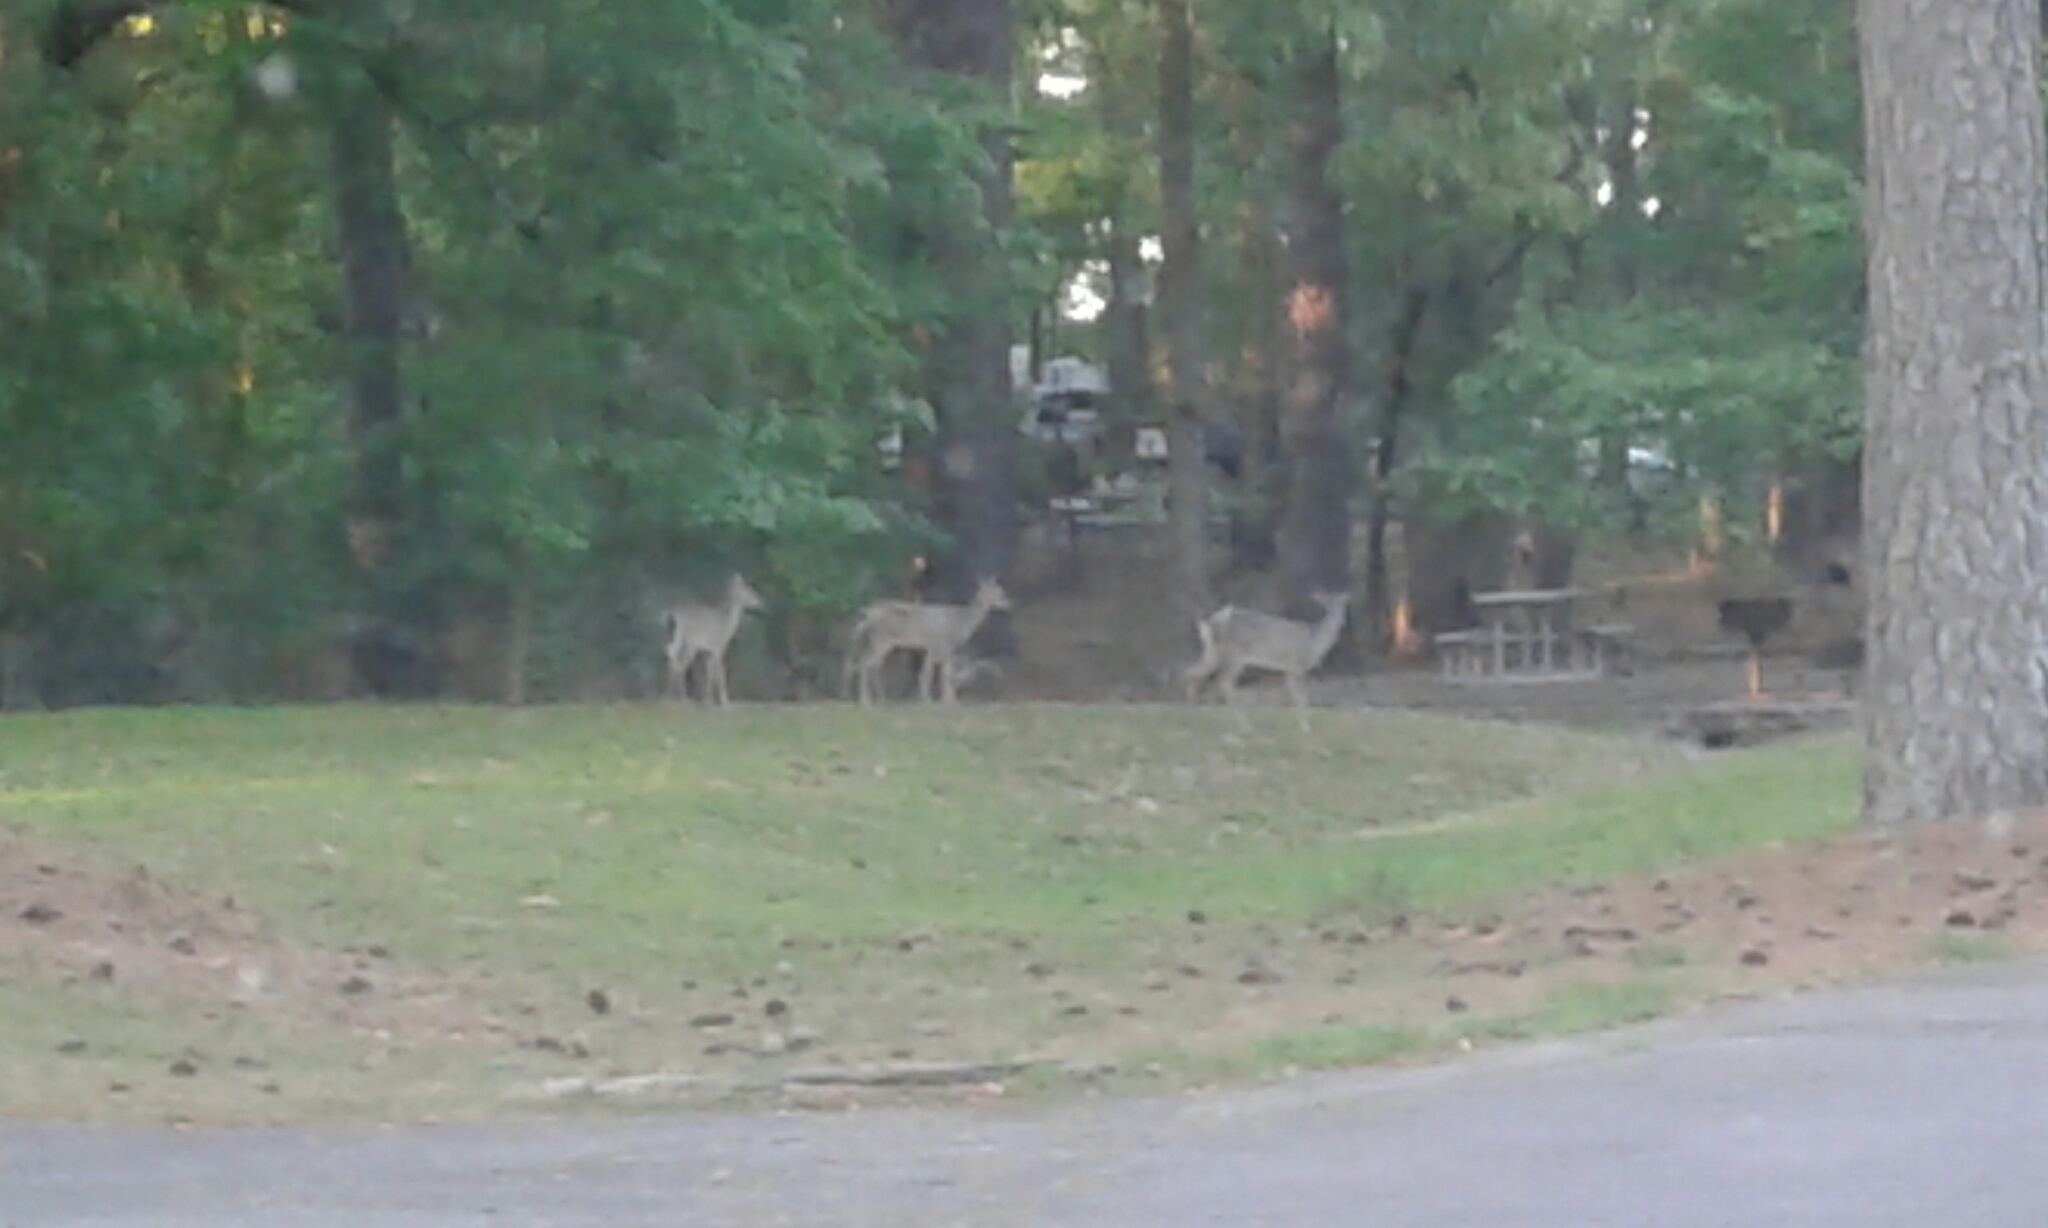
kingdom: Animalia
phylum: Chordata
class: Mammalia
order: Artiodactyla
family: Cervidae
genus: Odocoileus
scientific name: Odocoileus virginianus
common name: White-tailed deer
